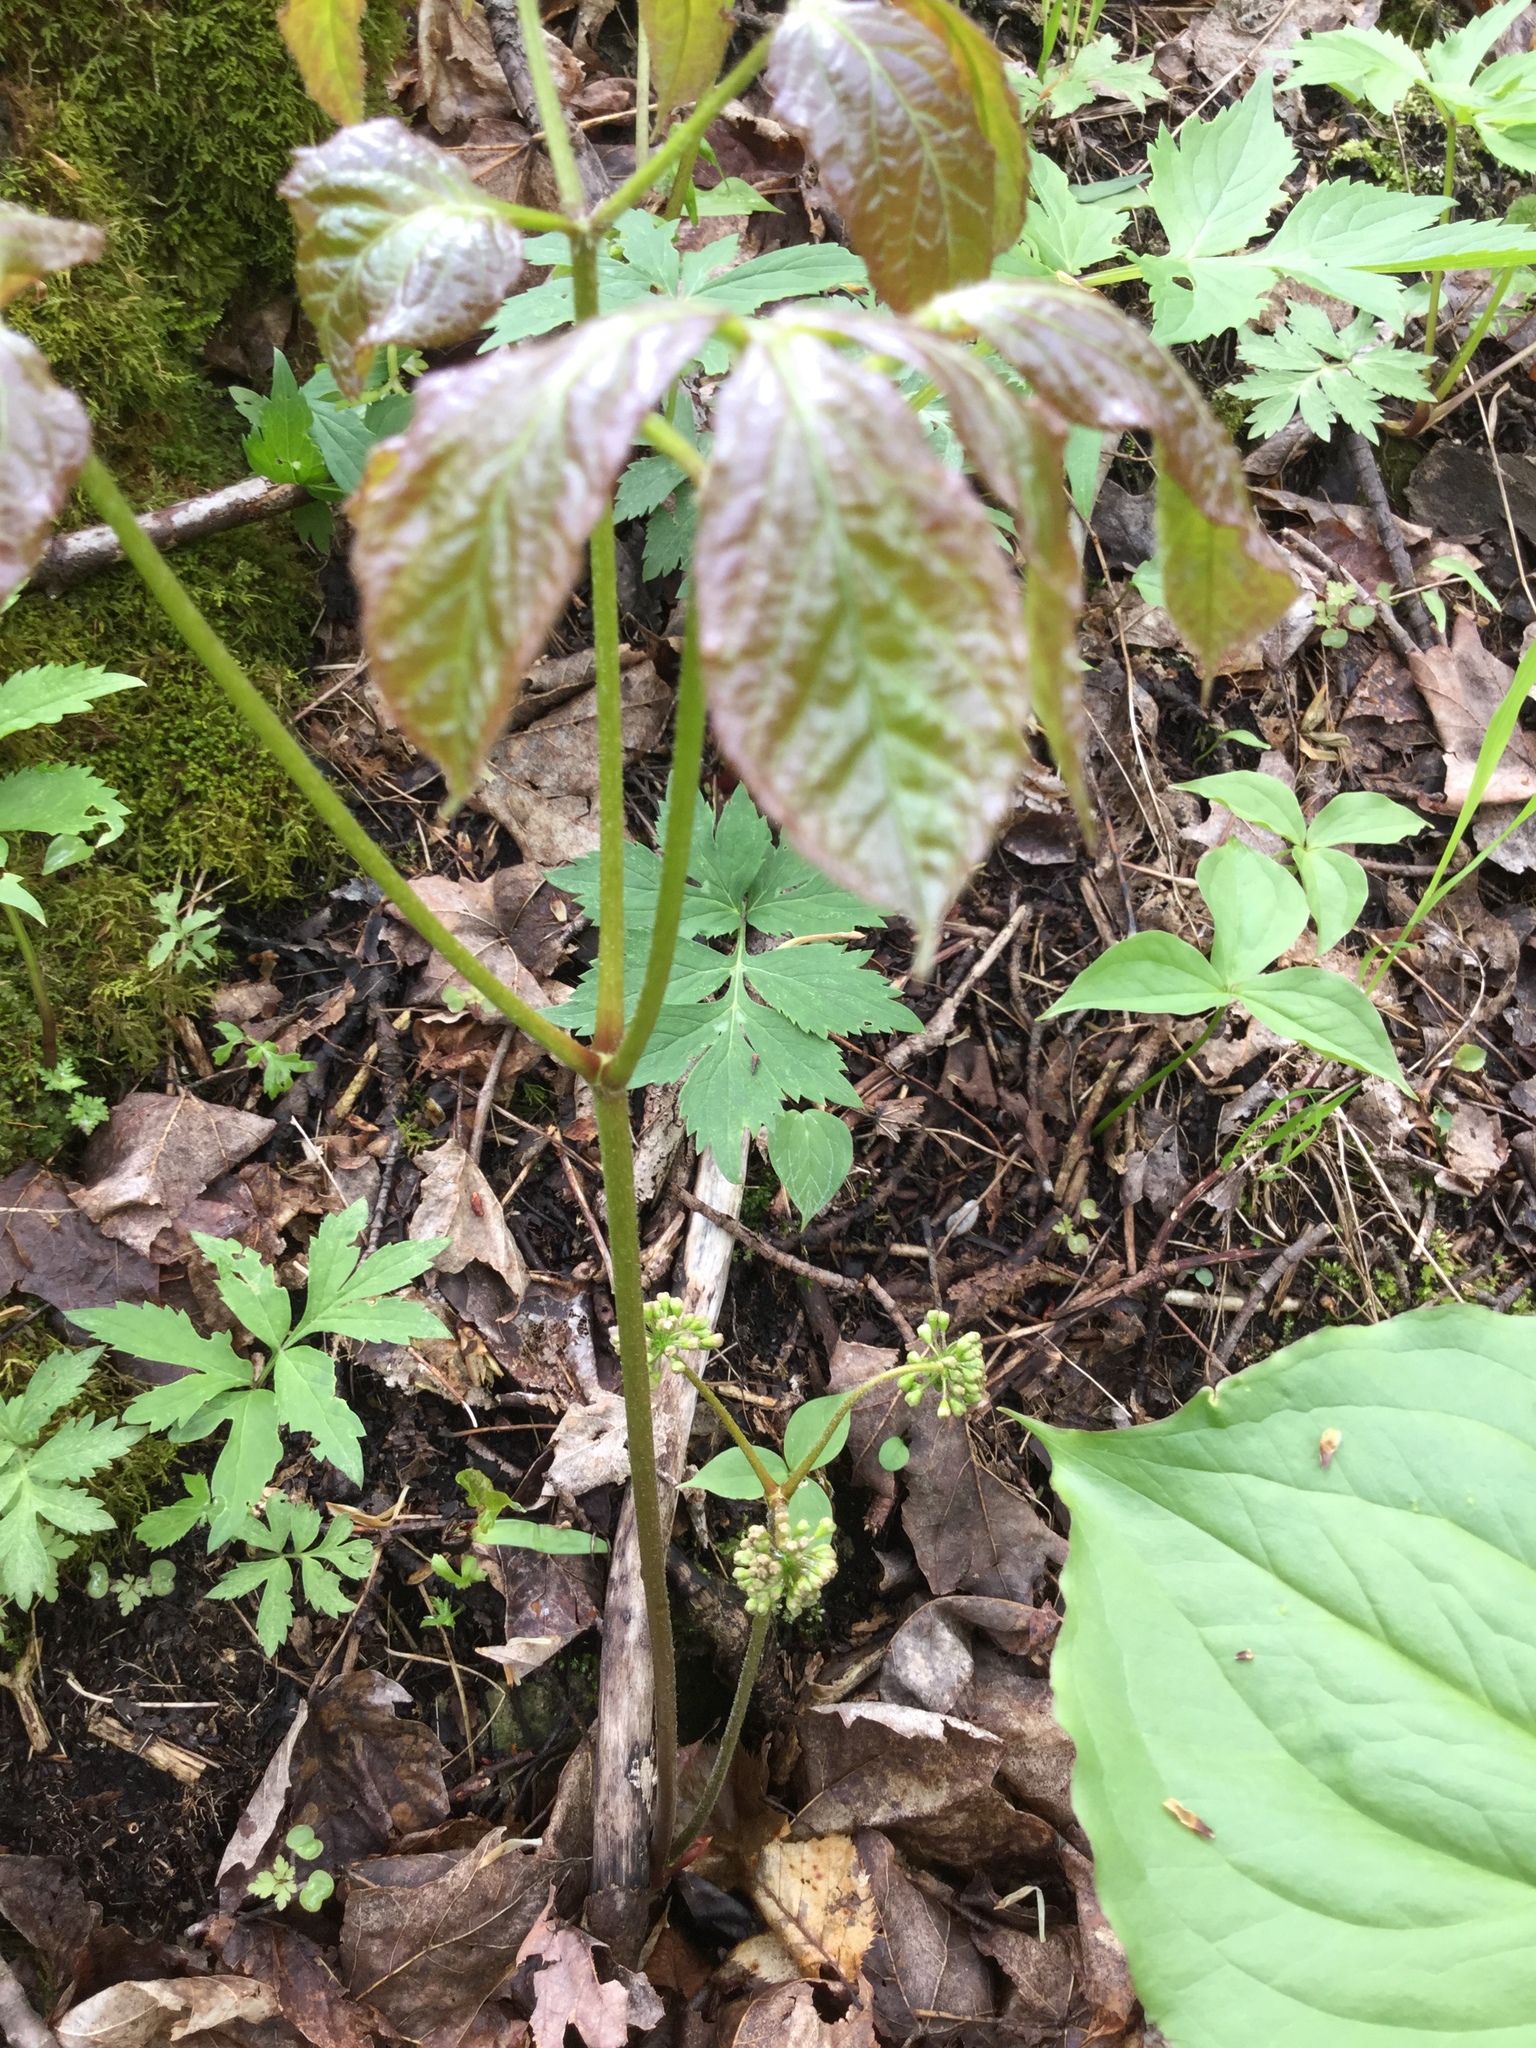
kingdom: Plantae
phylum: Tracheophyta
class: Magnoliopsida
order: Apiales
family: Araliaceae
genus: Aralia
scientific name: Aralia nudicaulis
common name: Wild sarsaparilla
